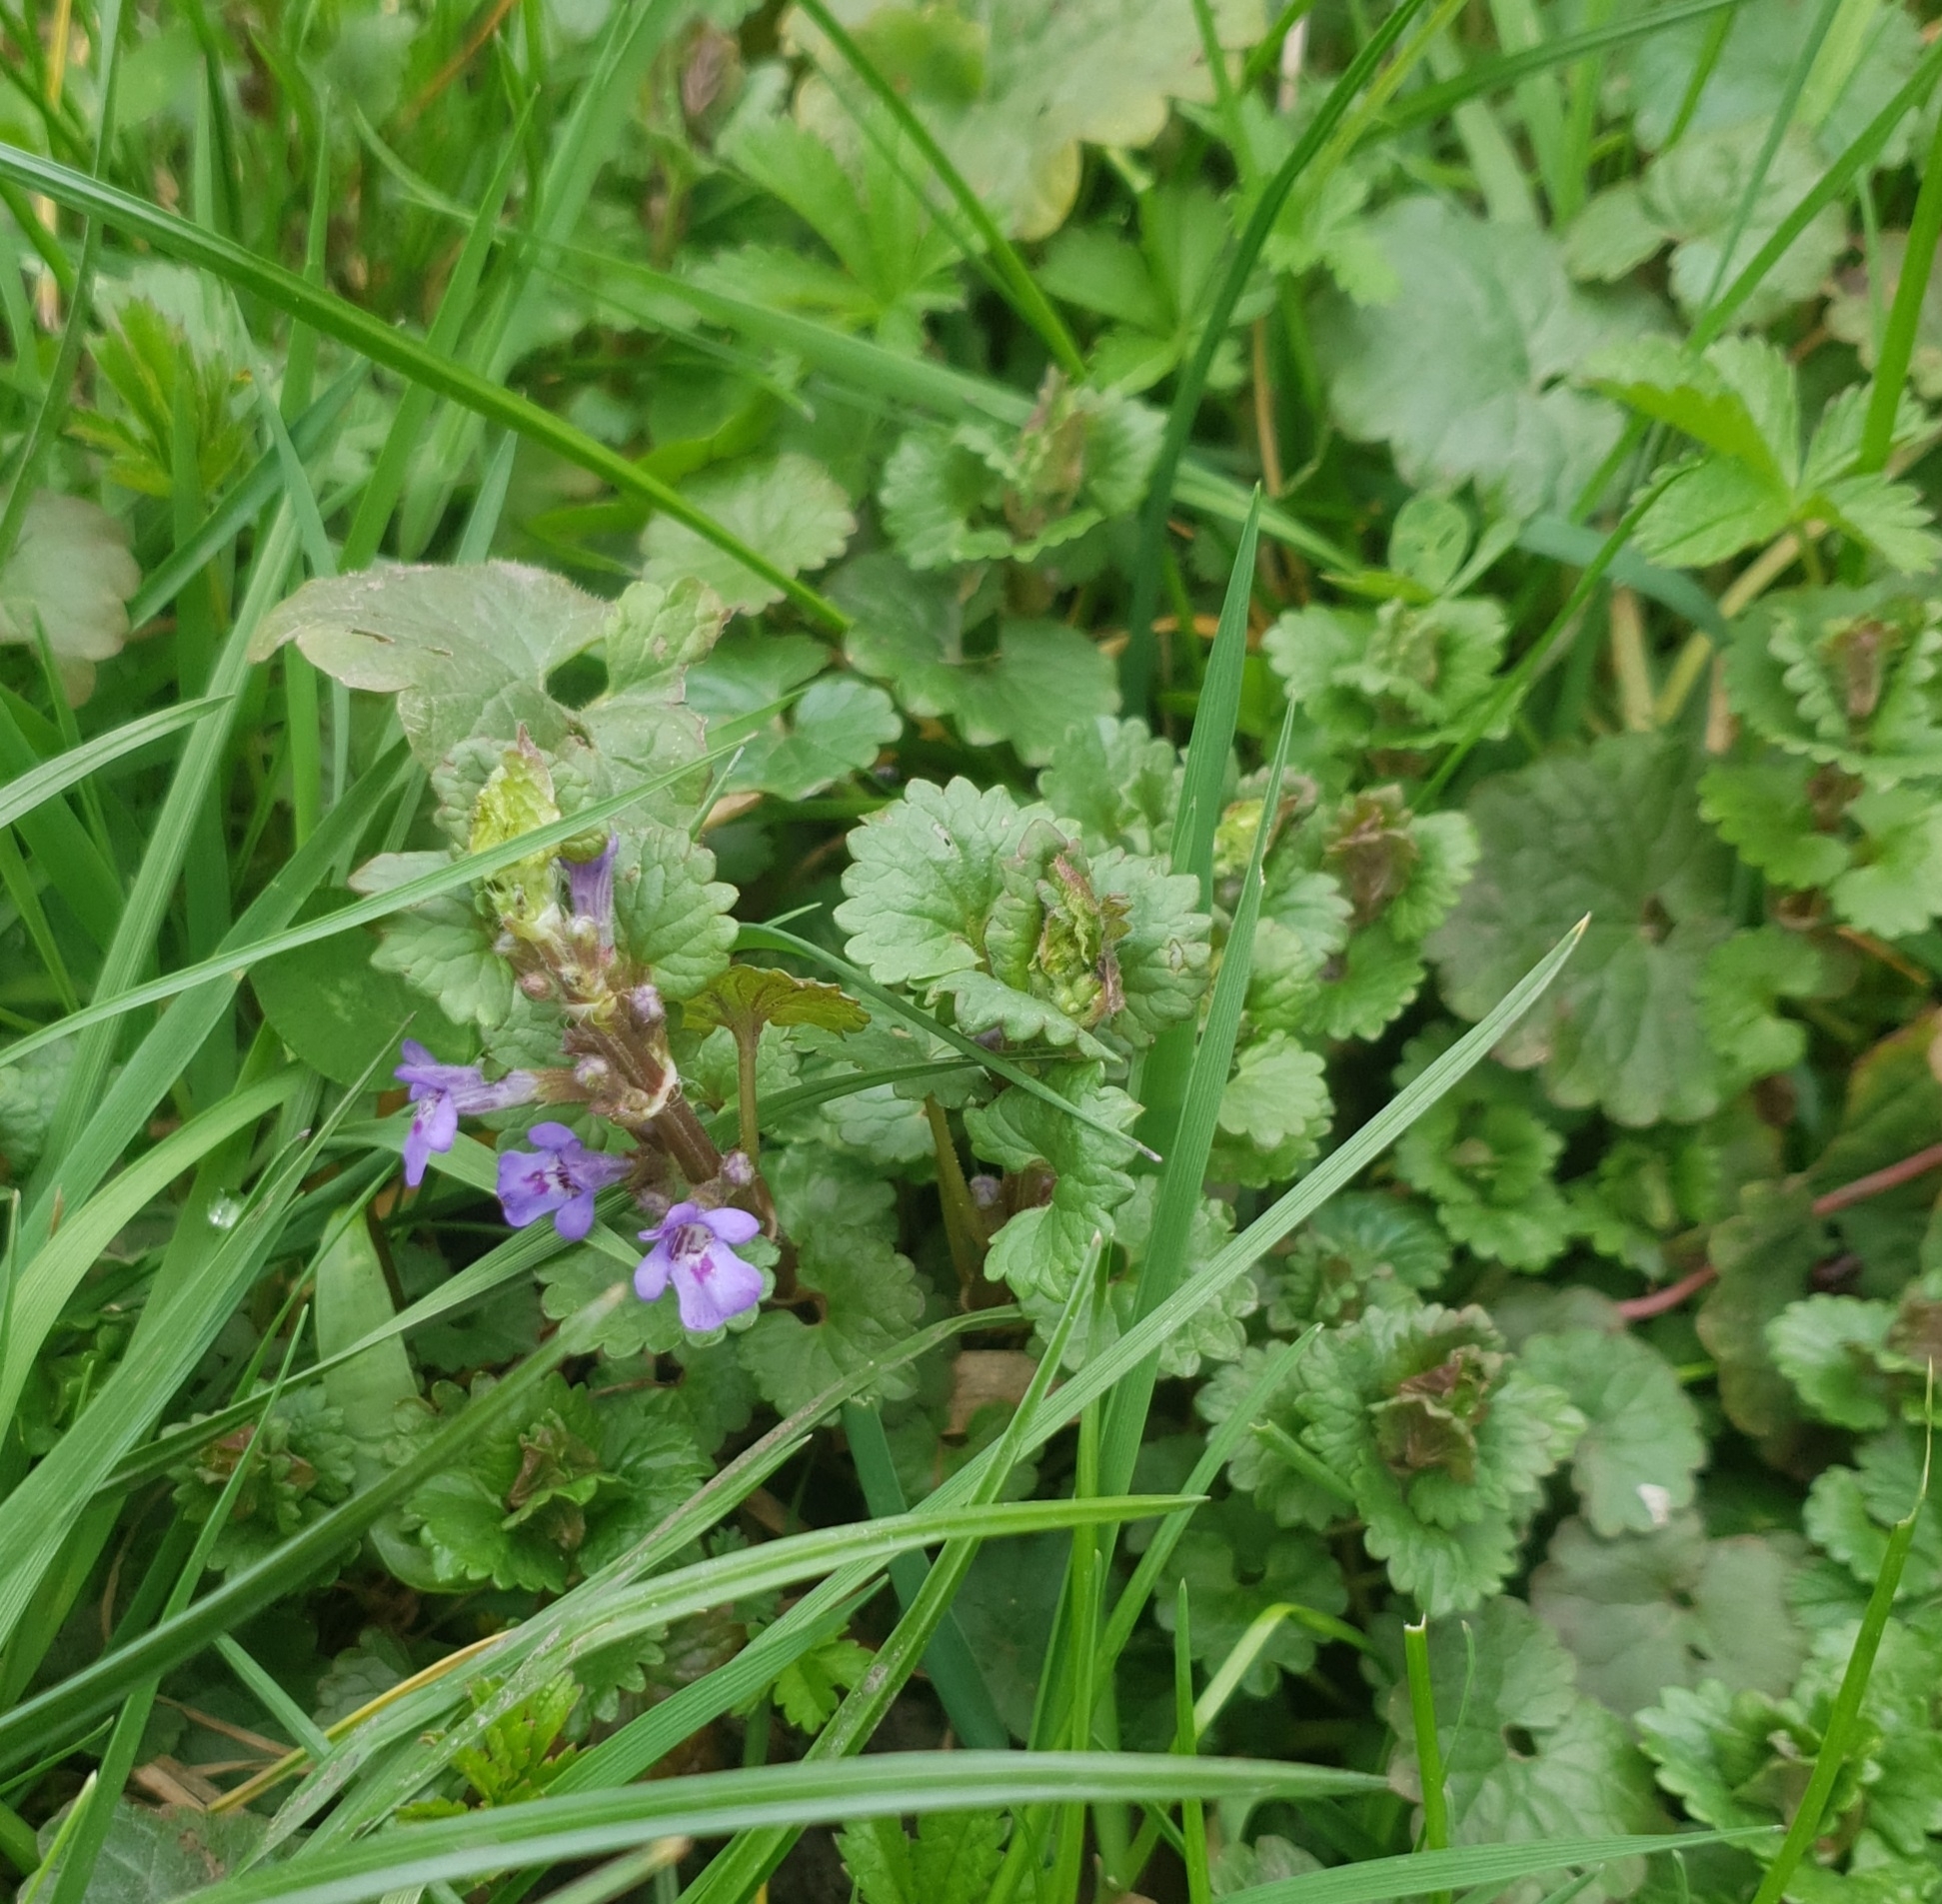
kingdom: Plantae
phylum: Tracheophyta
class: Magnoliopsida
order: Lamiales
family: Lamiaceae
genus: Glechoma
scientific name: Glechoma hederacea
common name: Ground ivy
